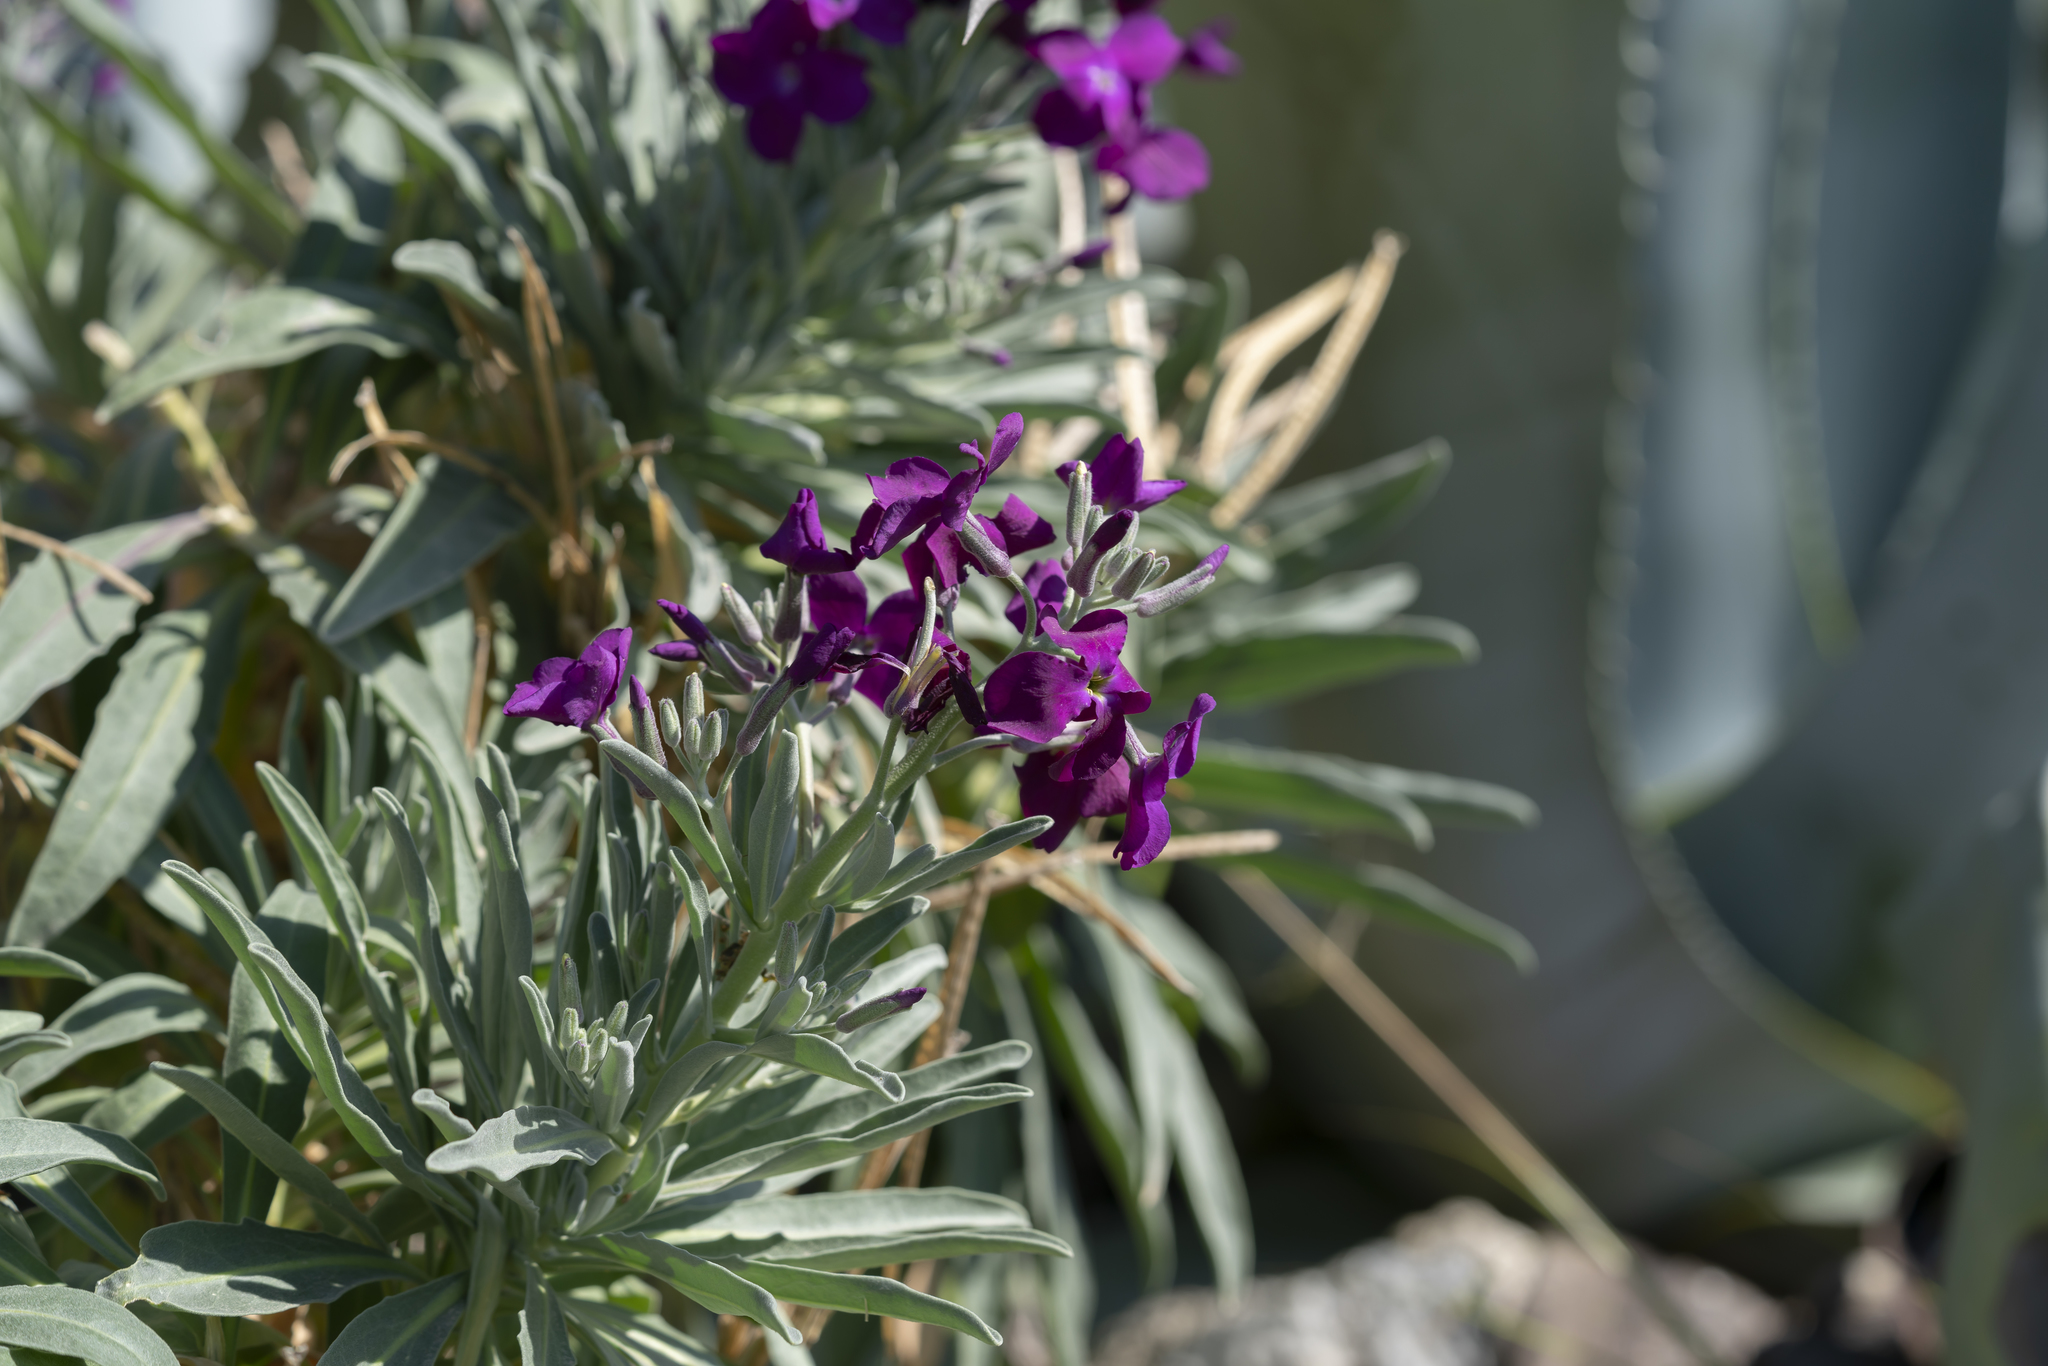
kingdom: Plantae
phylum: Tracheophyta
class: Magnoliopsida
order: Brassicales
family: Brassicaceae
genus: Matthiola
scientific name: Matthiola incana
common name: Hoary stock
